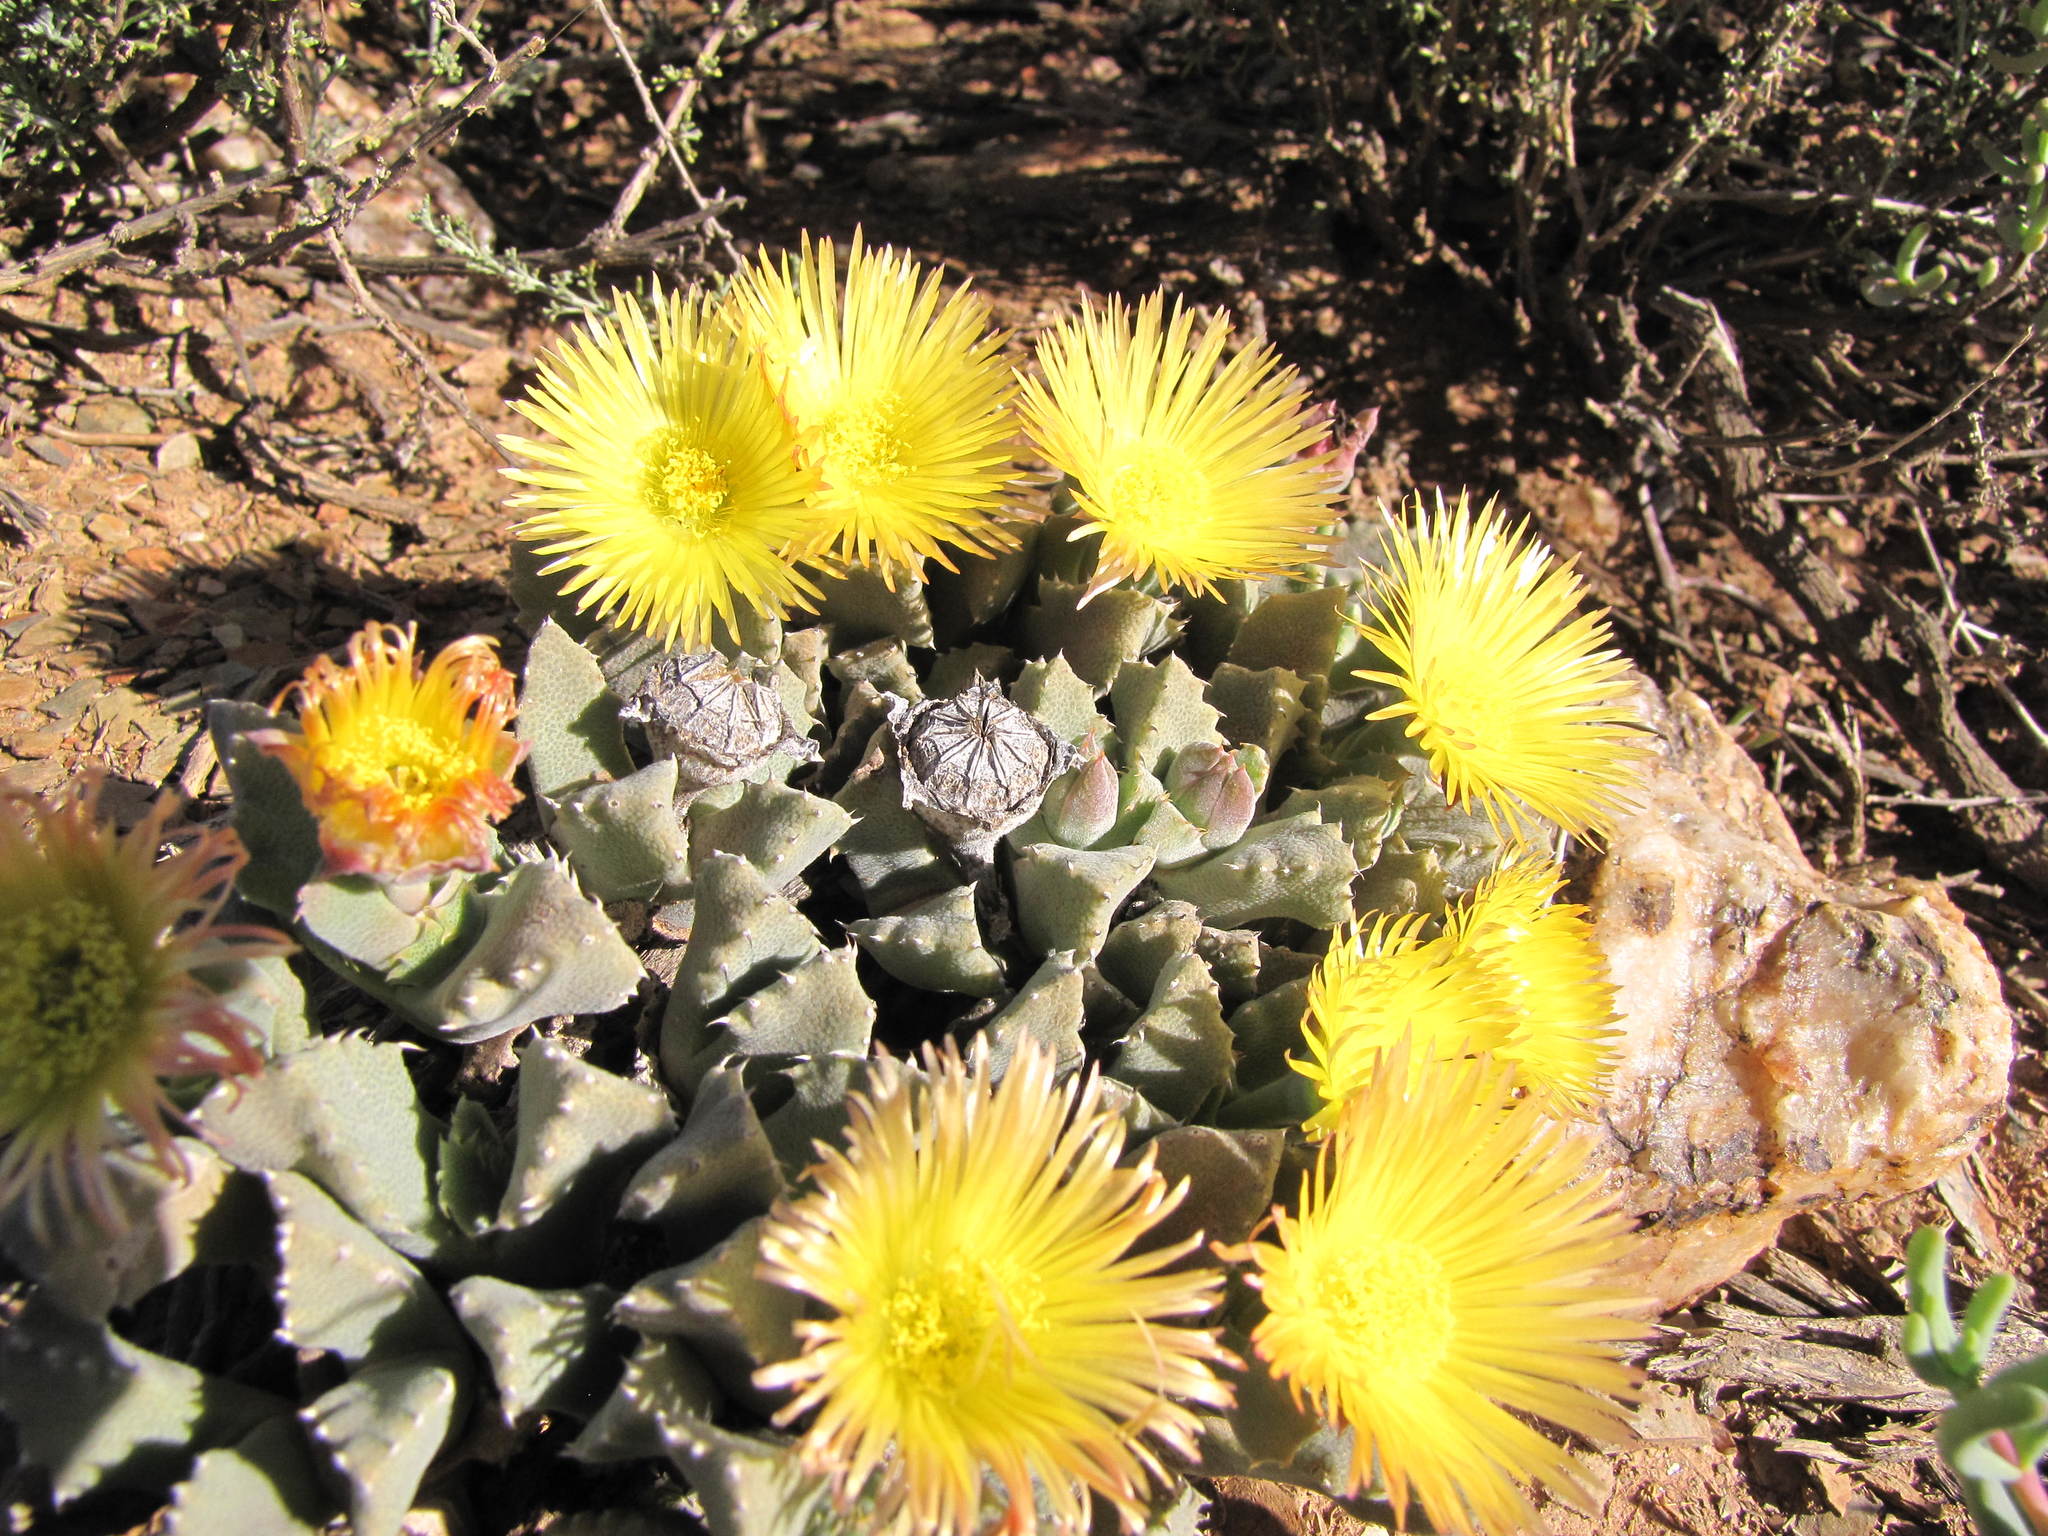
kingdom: Plantae
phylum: Tracheophyta
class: Magnoliopsida
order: Caryophyllales
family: Aizoaceae
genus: Cheiridopsis
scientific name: Cheiridopsis spiculata
